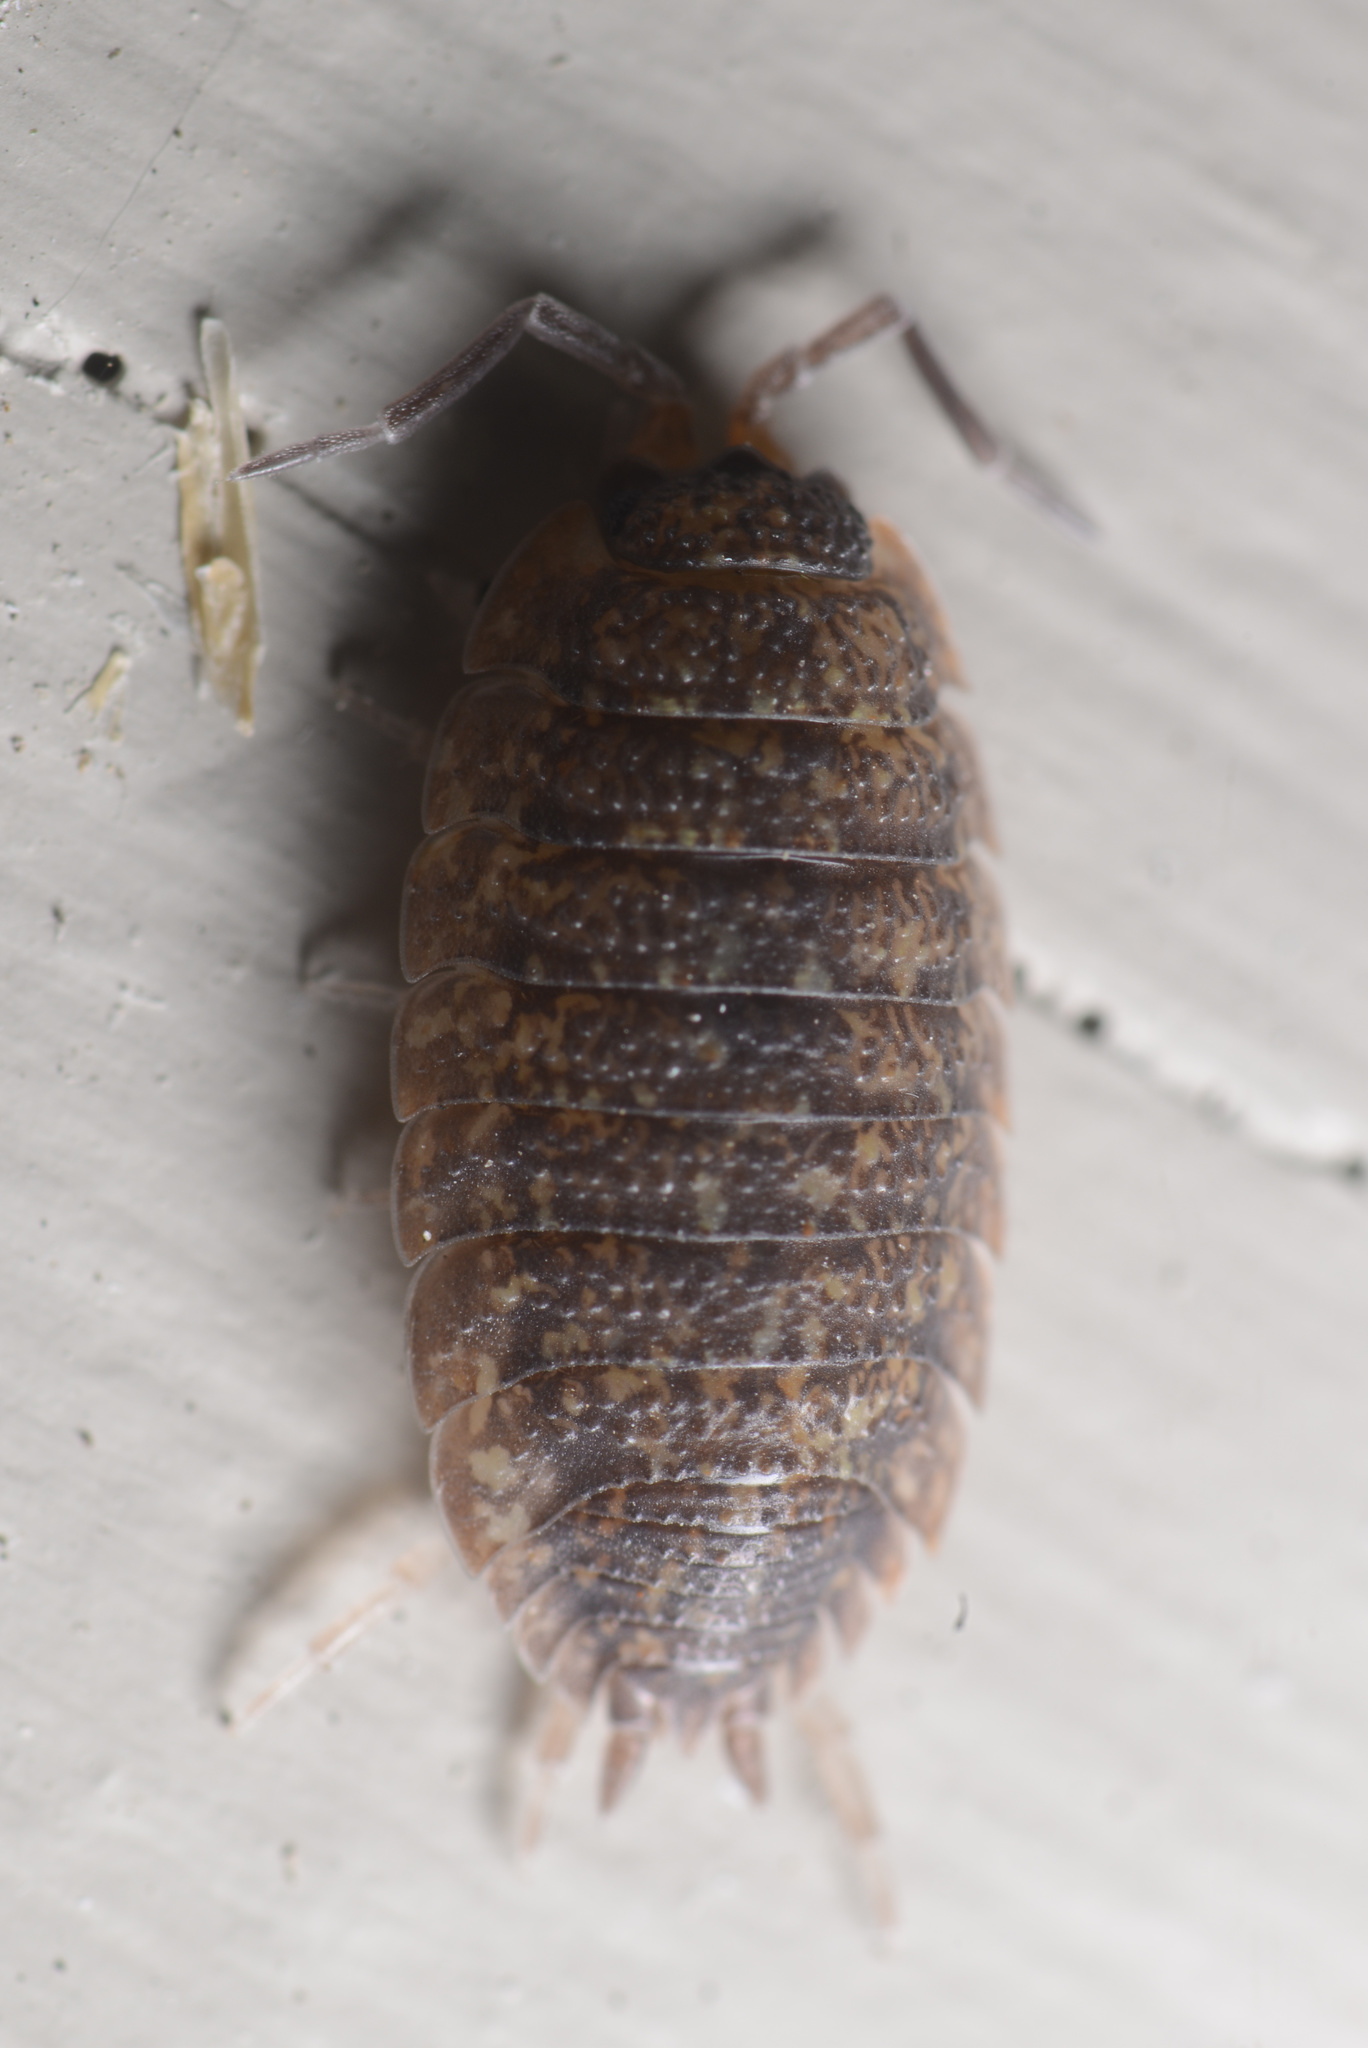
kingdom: Animalia
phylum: Arthropoda
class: Malacostraca
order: Isopoda
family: Porcellionidae
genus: Porcellio
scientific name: Porcellio scaber
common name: Common rough woodlouse
